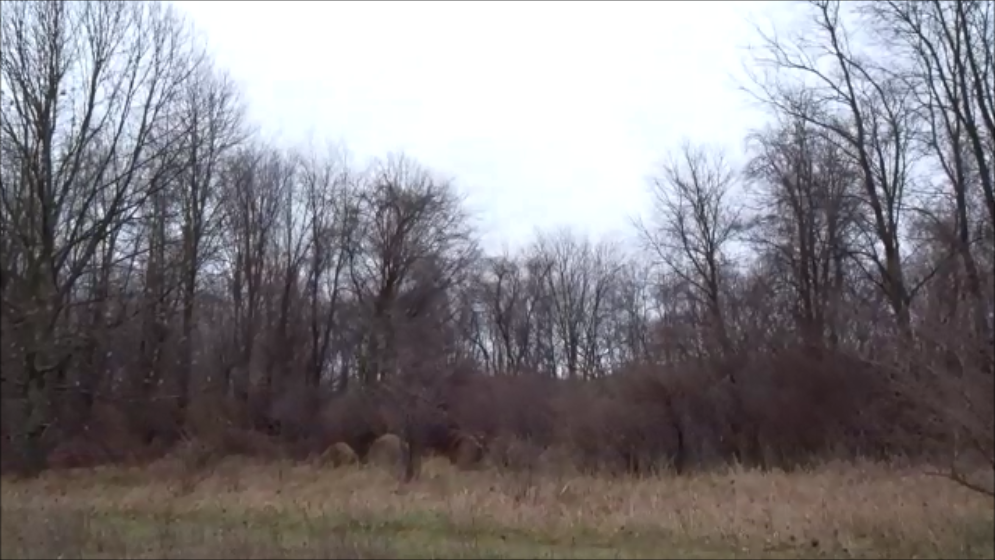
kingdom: Animalia
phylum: Chordata
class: Aves
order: Passeriformes
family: Passerellidae
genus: Passerella
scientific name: Passerella iliaca
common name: Fox sparrow
